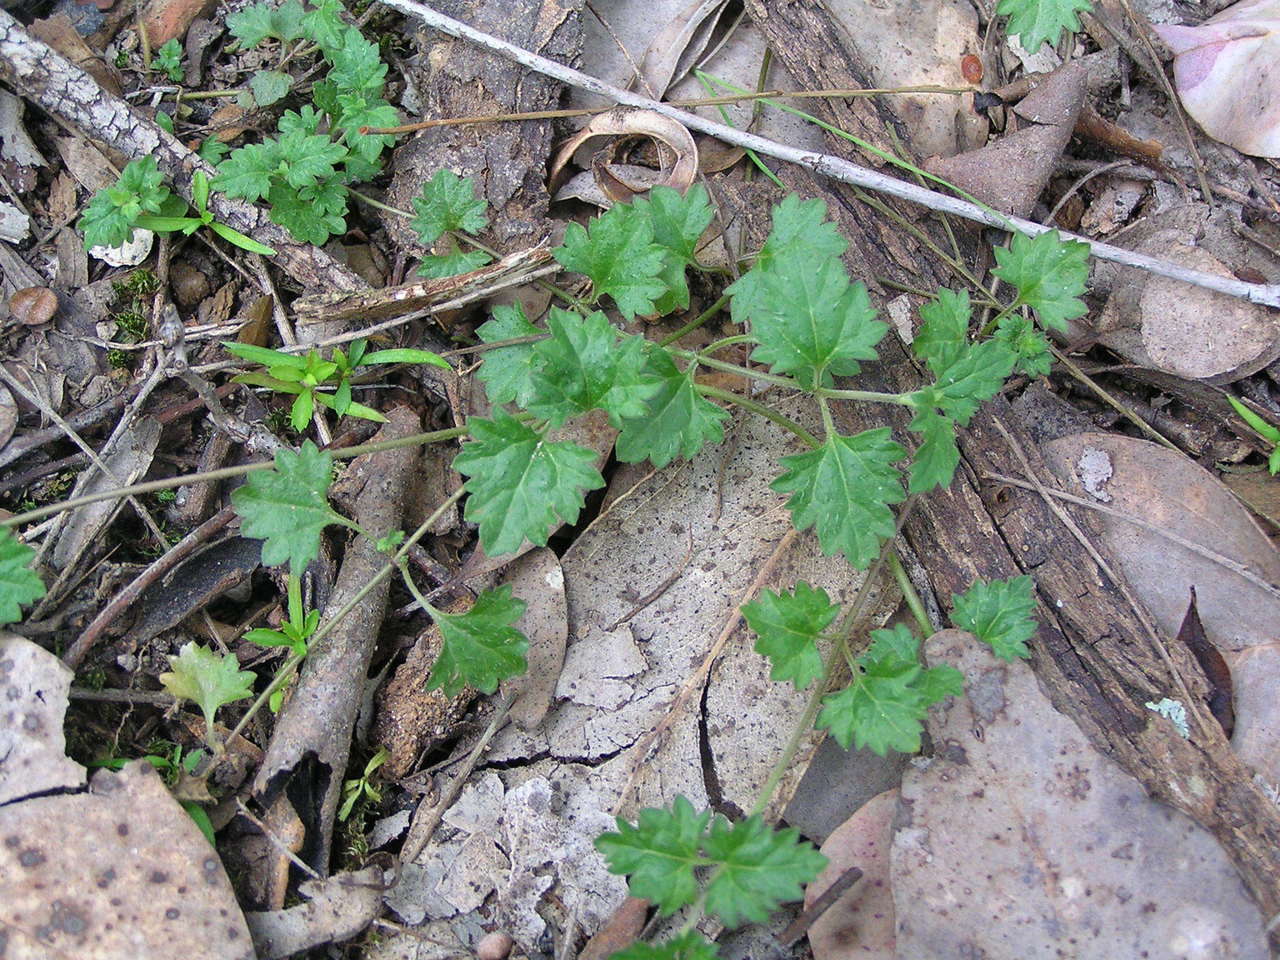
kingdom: Plantae
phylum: Tracheophyta
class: Magnoliopsida
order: Lamiales
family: Plantaginaceae
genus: Veronica
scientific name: Veronica plebeia
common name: Speedwell
